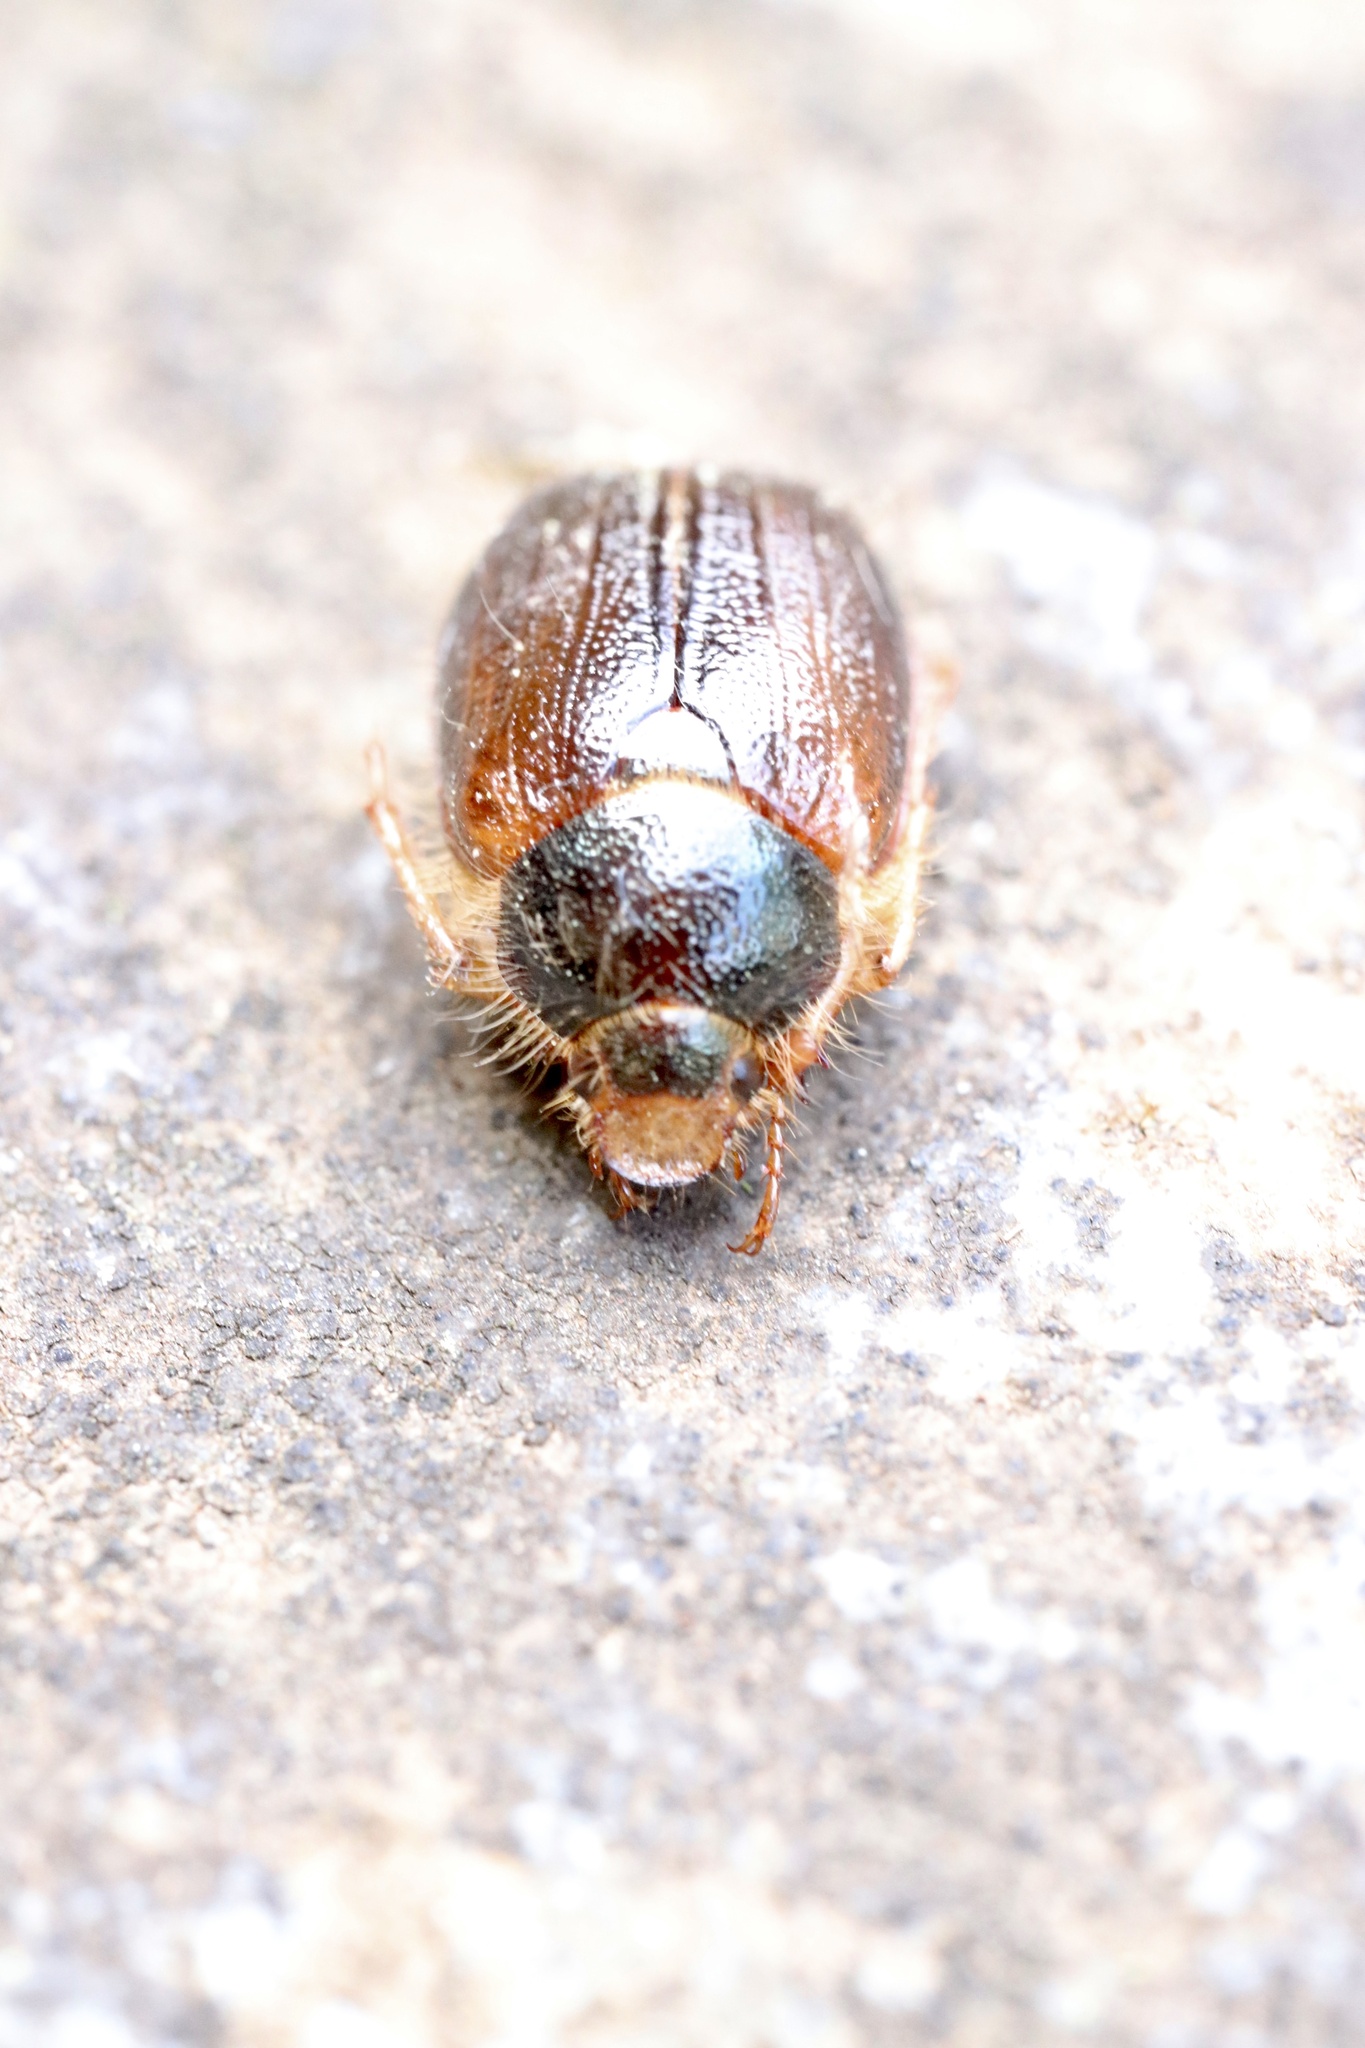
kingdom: Animalia
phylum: Arthropoda
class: Insecta
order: Coleoptera
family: Scarabaeidae
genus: Phytholaema
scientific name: Phytholaema herrmanni
